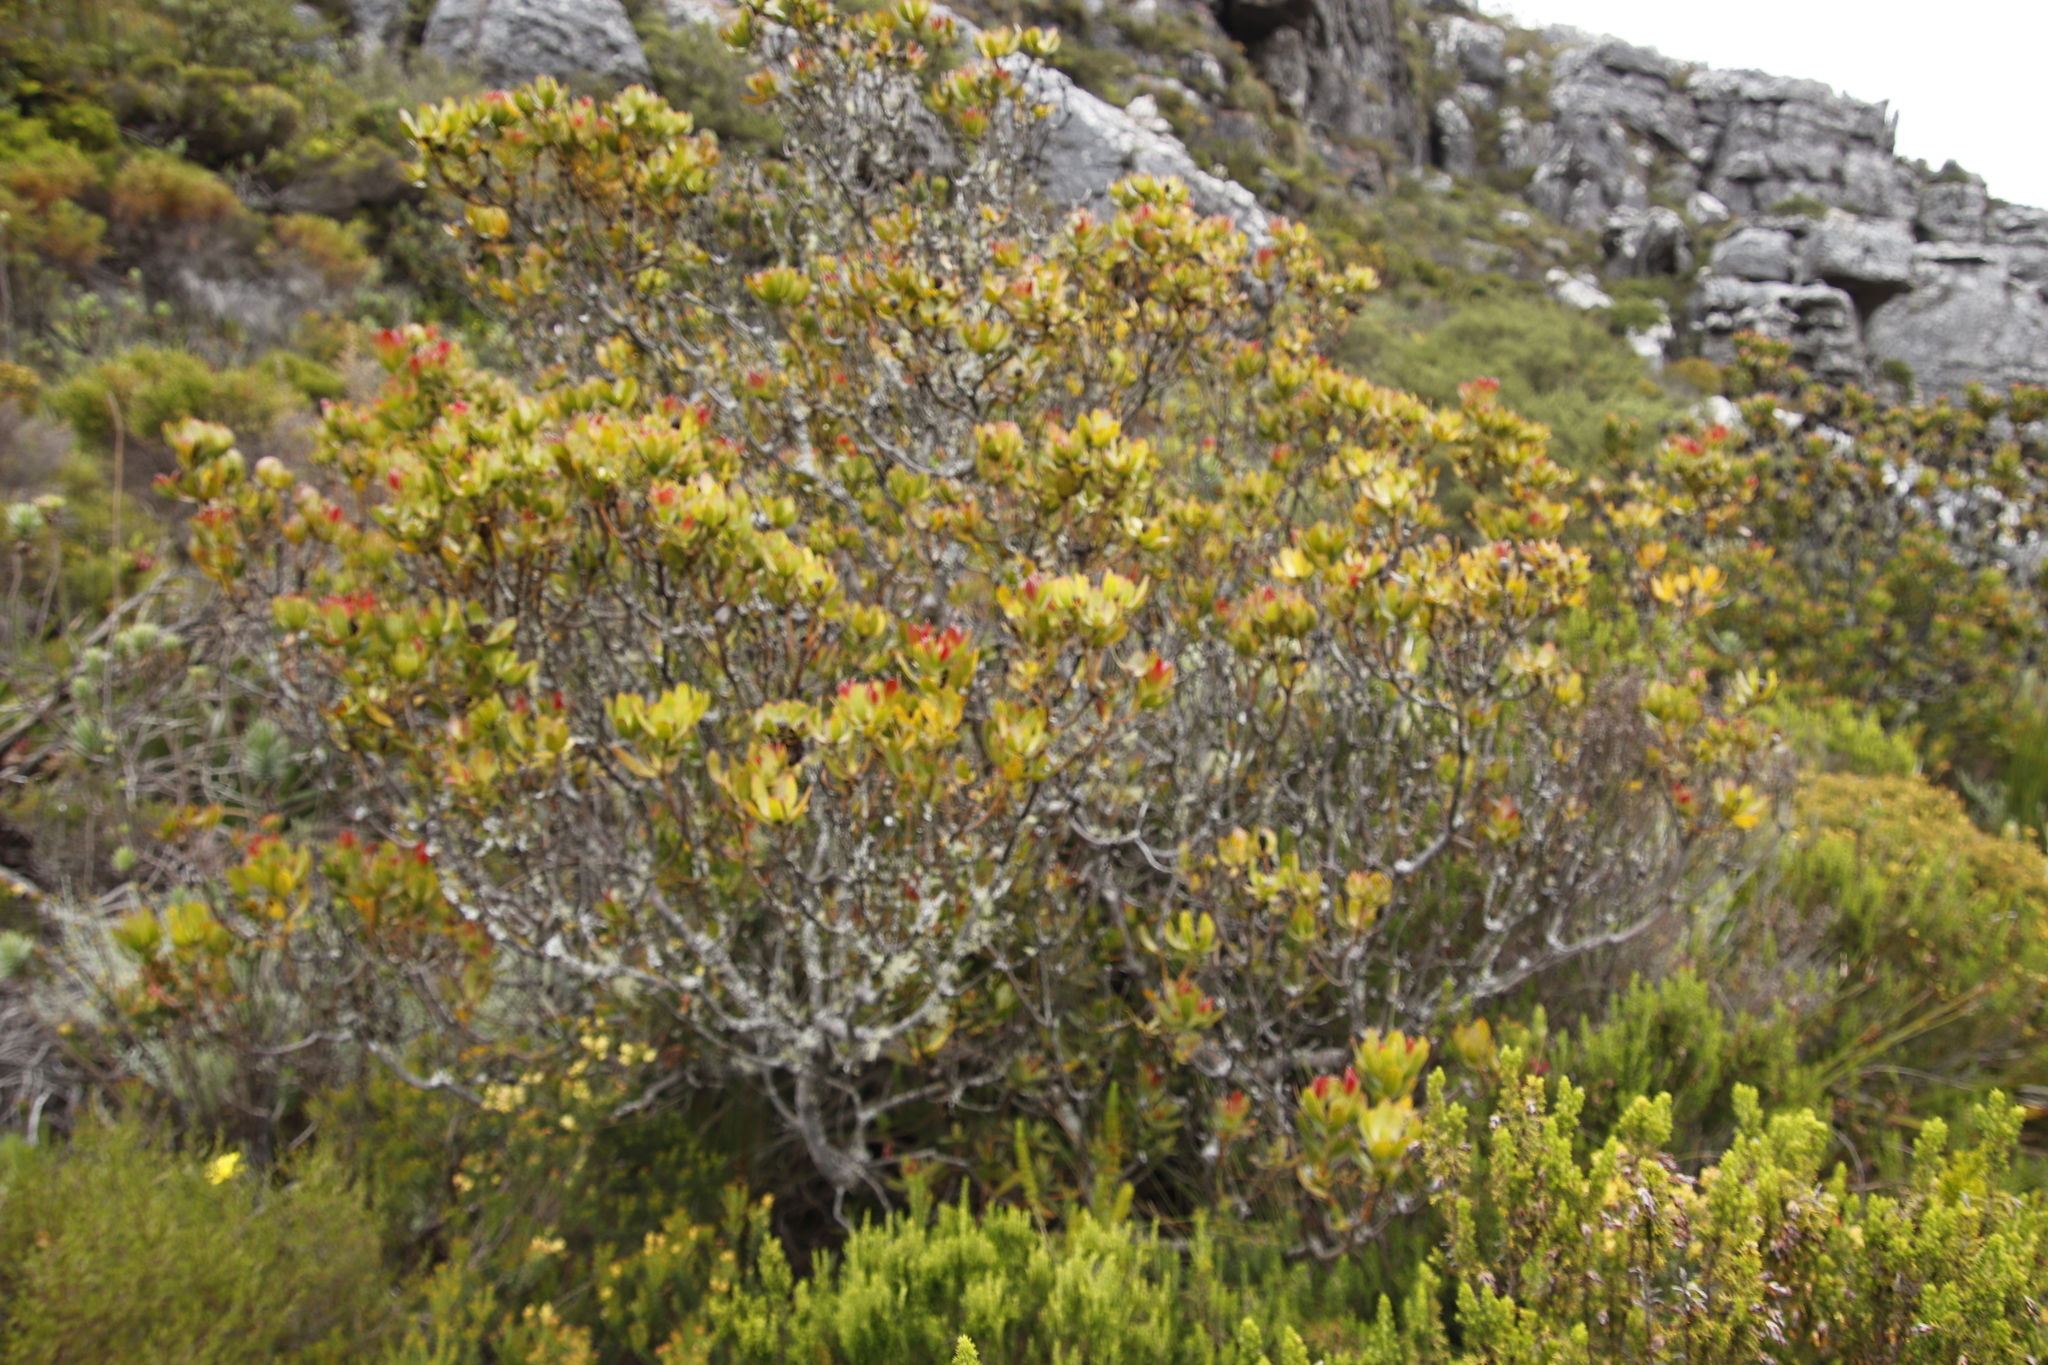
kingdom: Plantae
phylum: Tracheophyta
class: Magnoliopsida
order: Proteales
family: Proteaceae
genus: Leucadendron
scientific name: Leucadendron strobilinum
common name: Mountain rose
